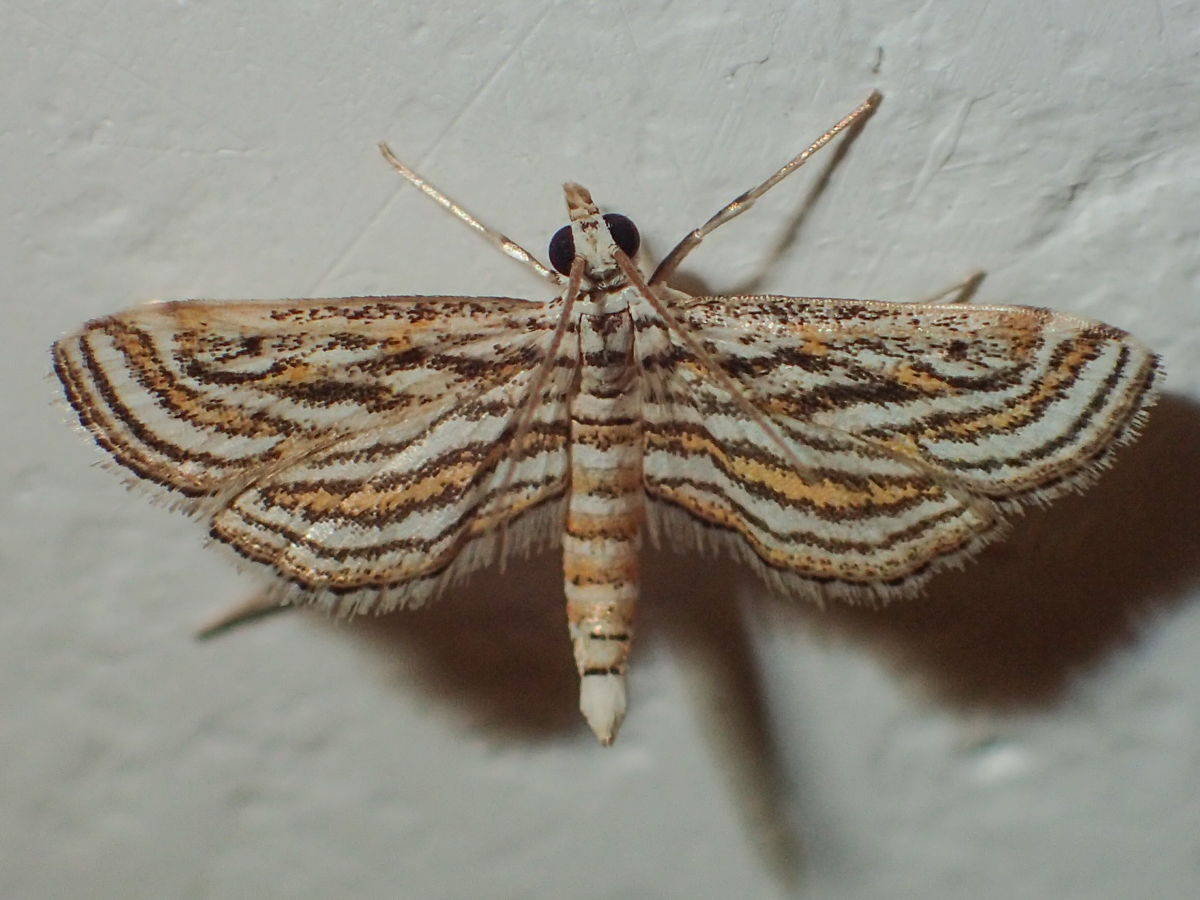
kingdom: Animalia
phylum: Arthropoda
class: Insecta
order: Lepidoptera
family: Crambidae
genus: Parapoynx
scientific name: Parapoynx fluctuosalis
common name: Moth
